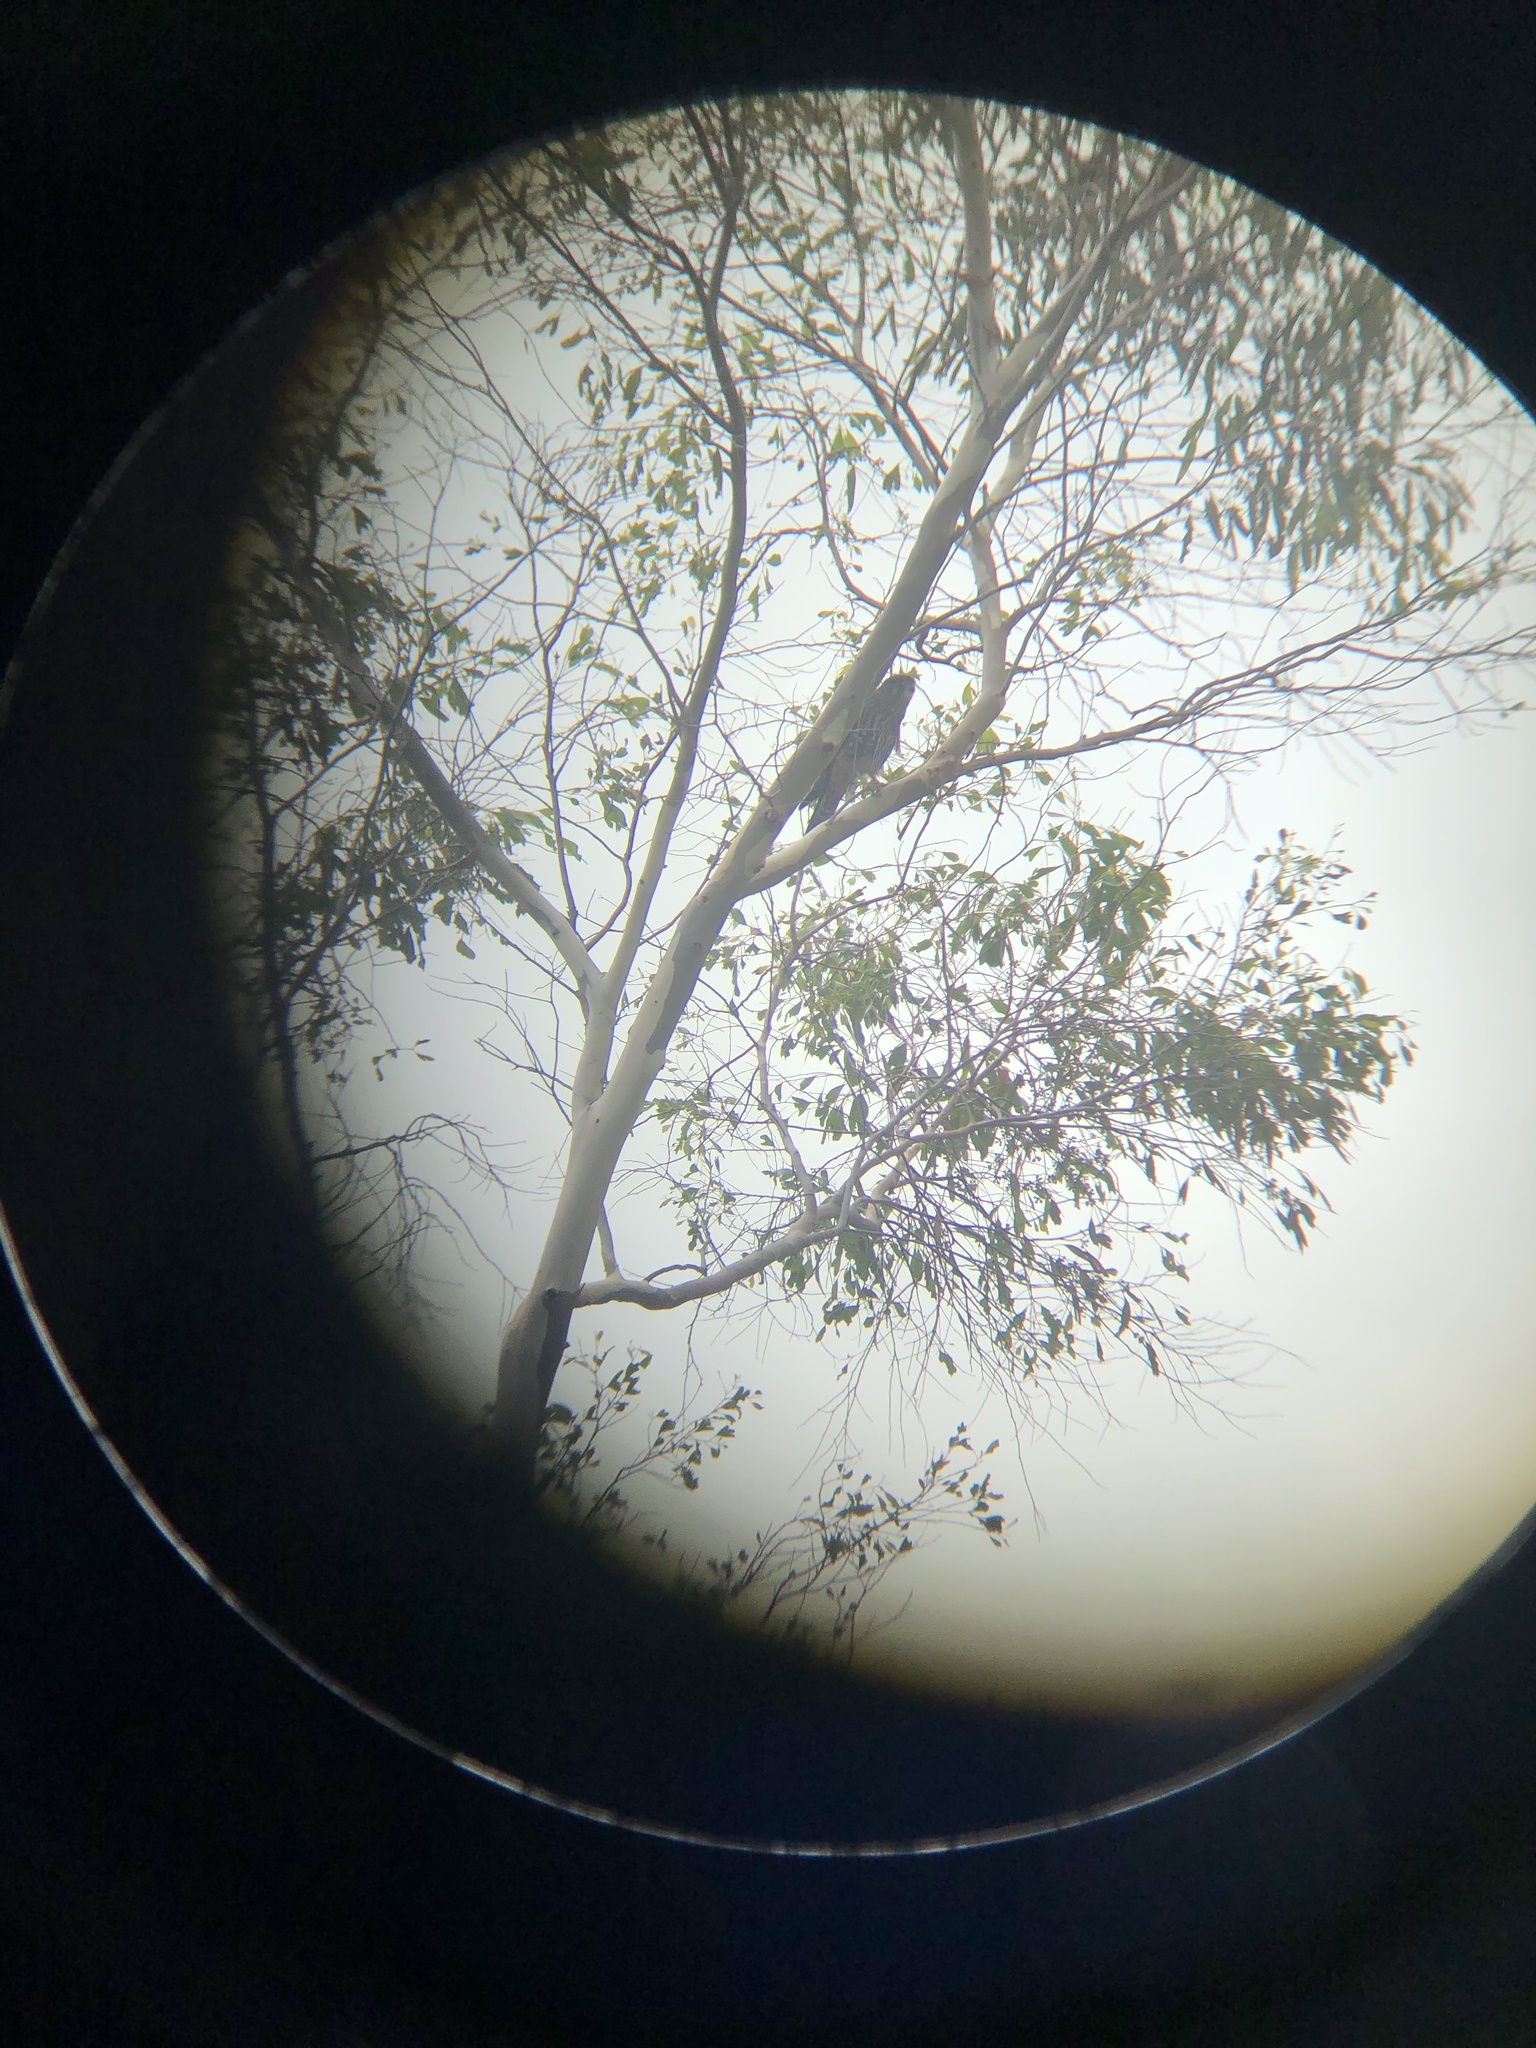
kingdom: Animalia
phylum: Chordata
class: Aves
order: Falconiformes
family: Falconidae
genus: Falco
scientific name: Falco novaeseelandiae
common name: New zealand falcon
